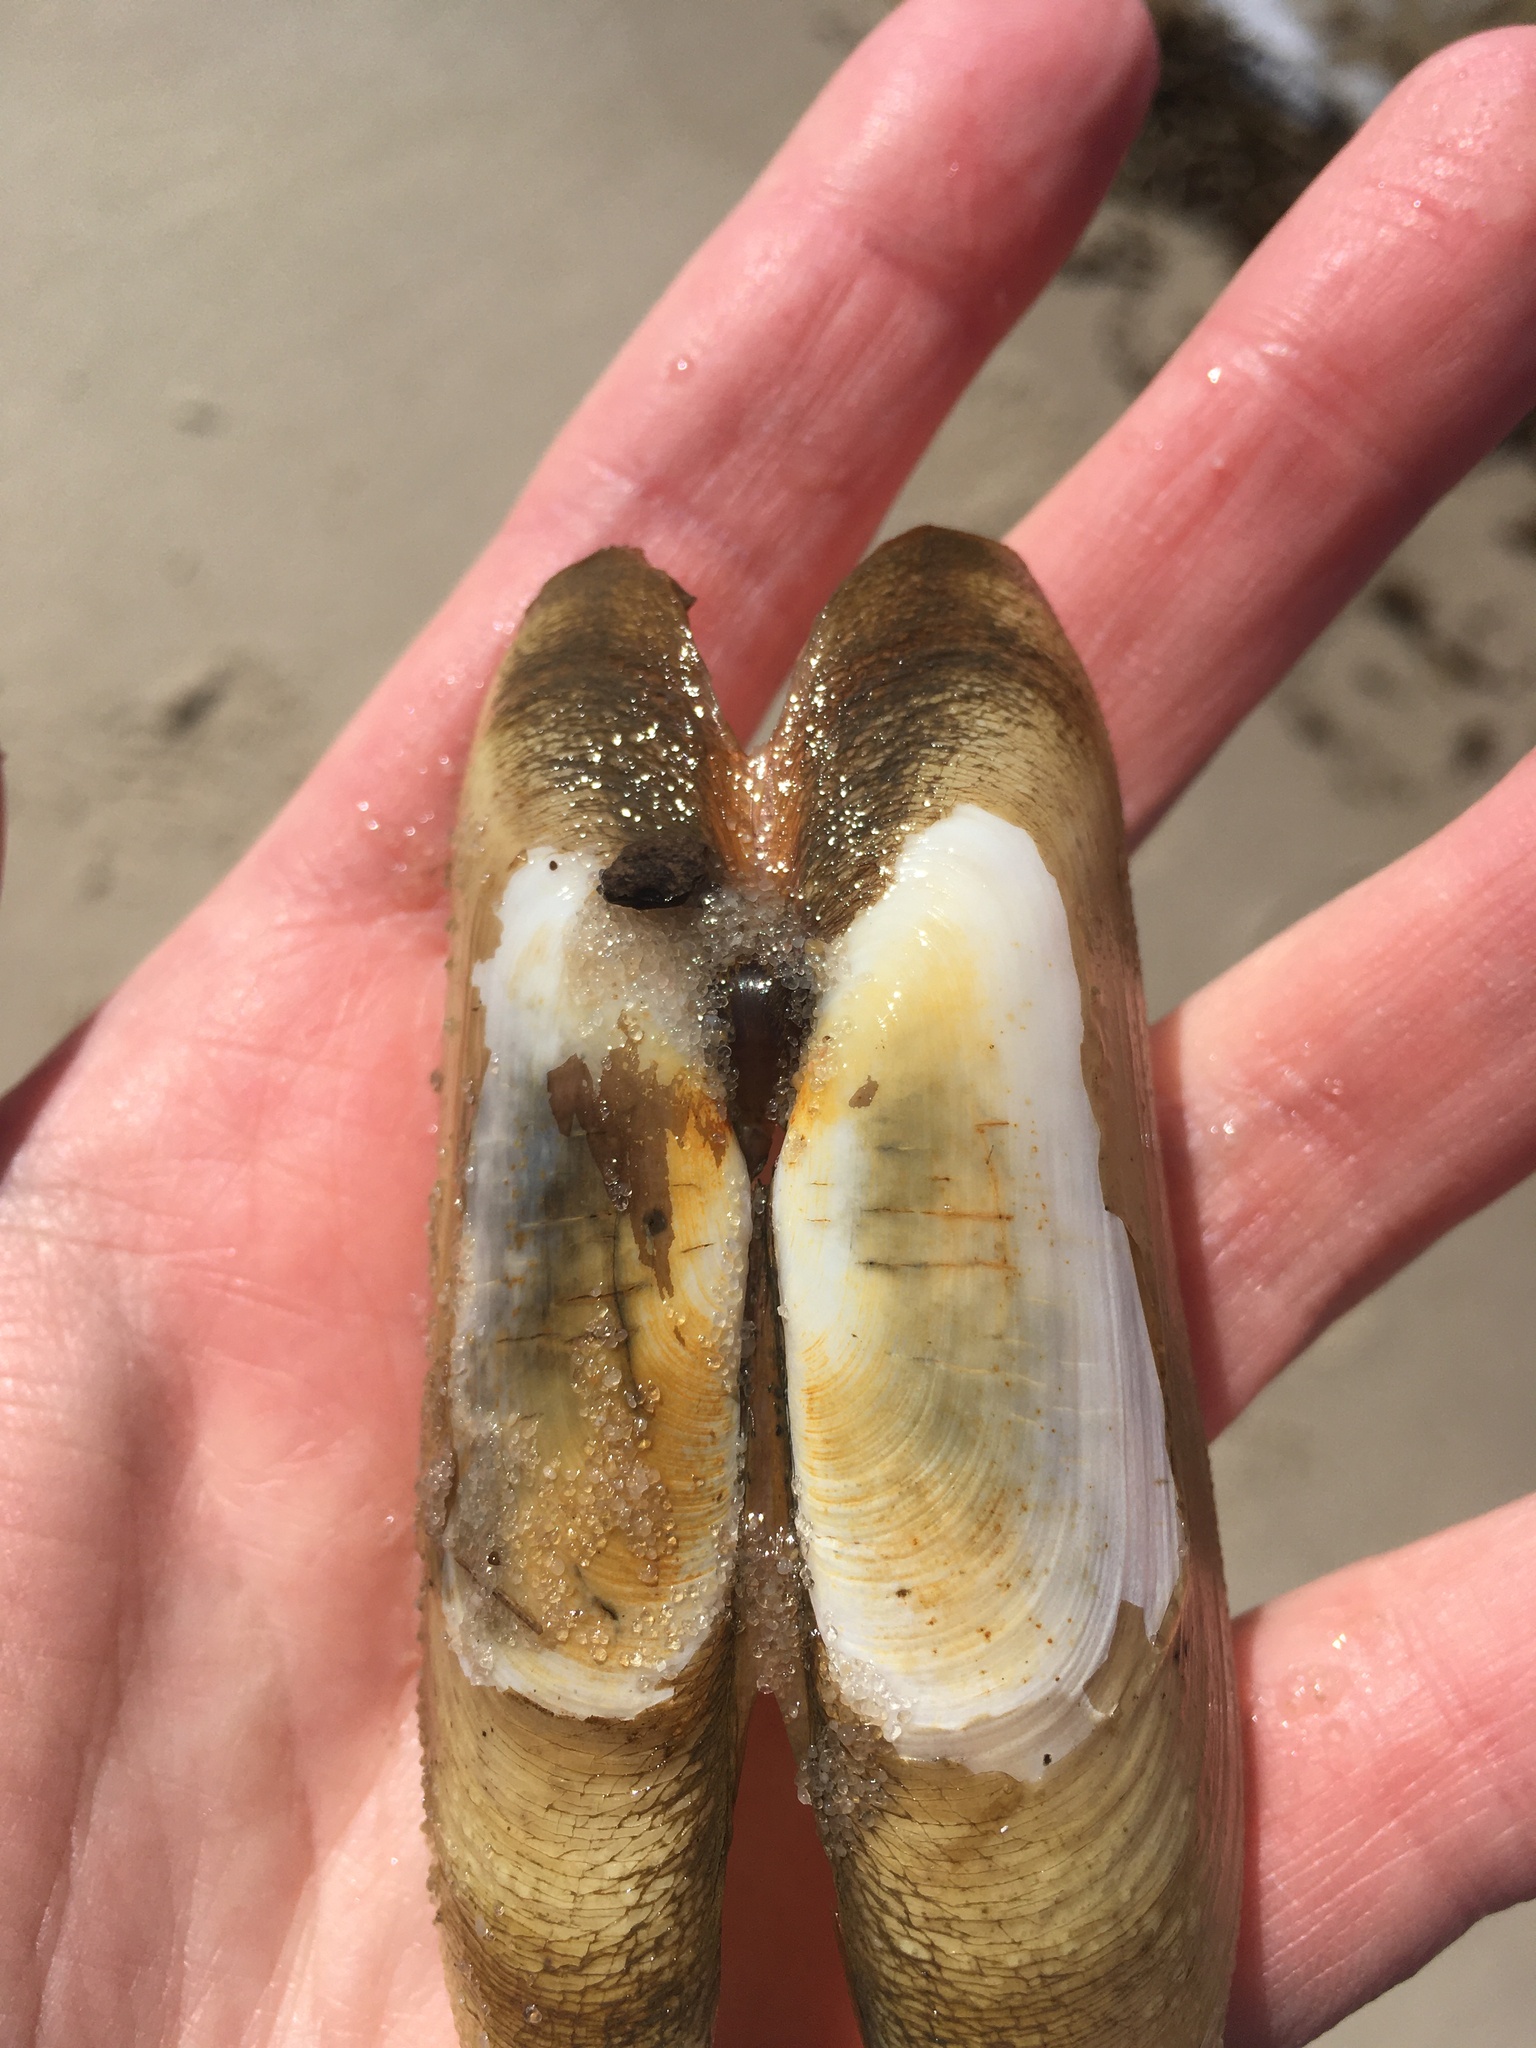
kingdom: Animalia
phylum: Mollusca
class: Bivalvia
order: Cardiida
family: Solecurtidae
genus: Tagelus
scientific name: Tagelus plebeius
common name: Stout tagelus
